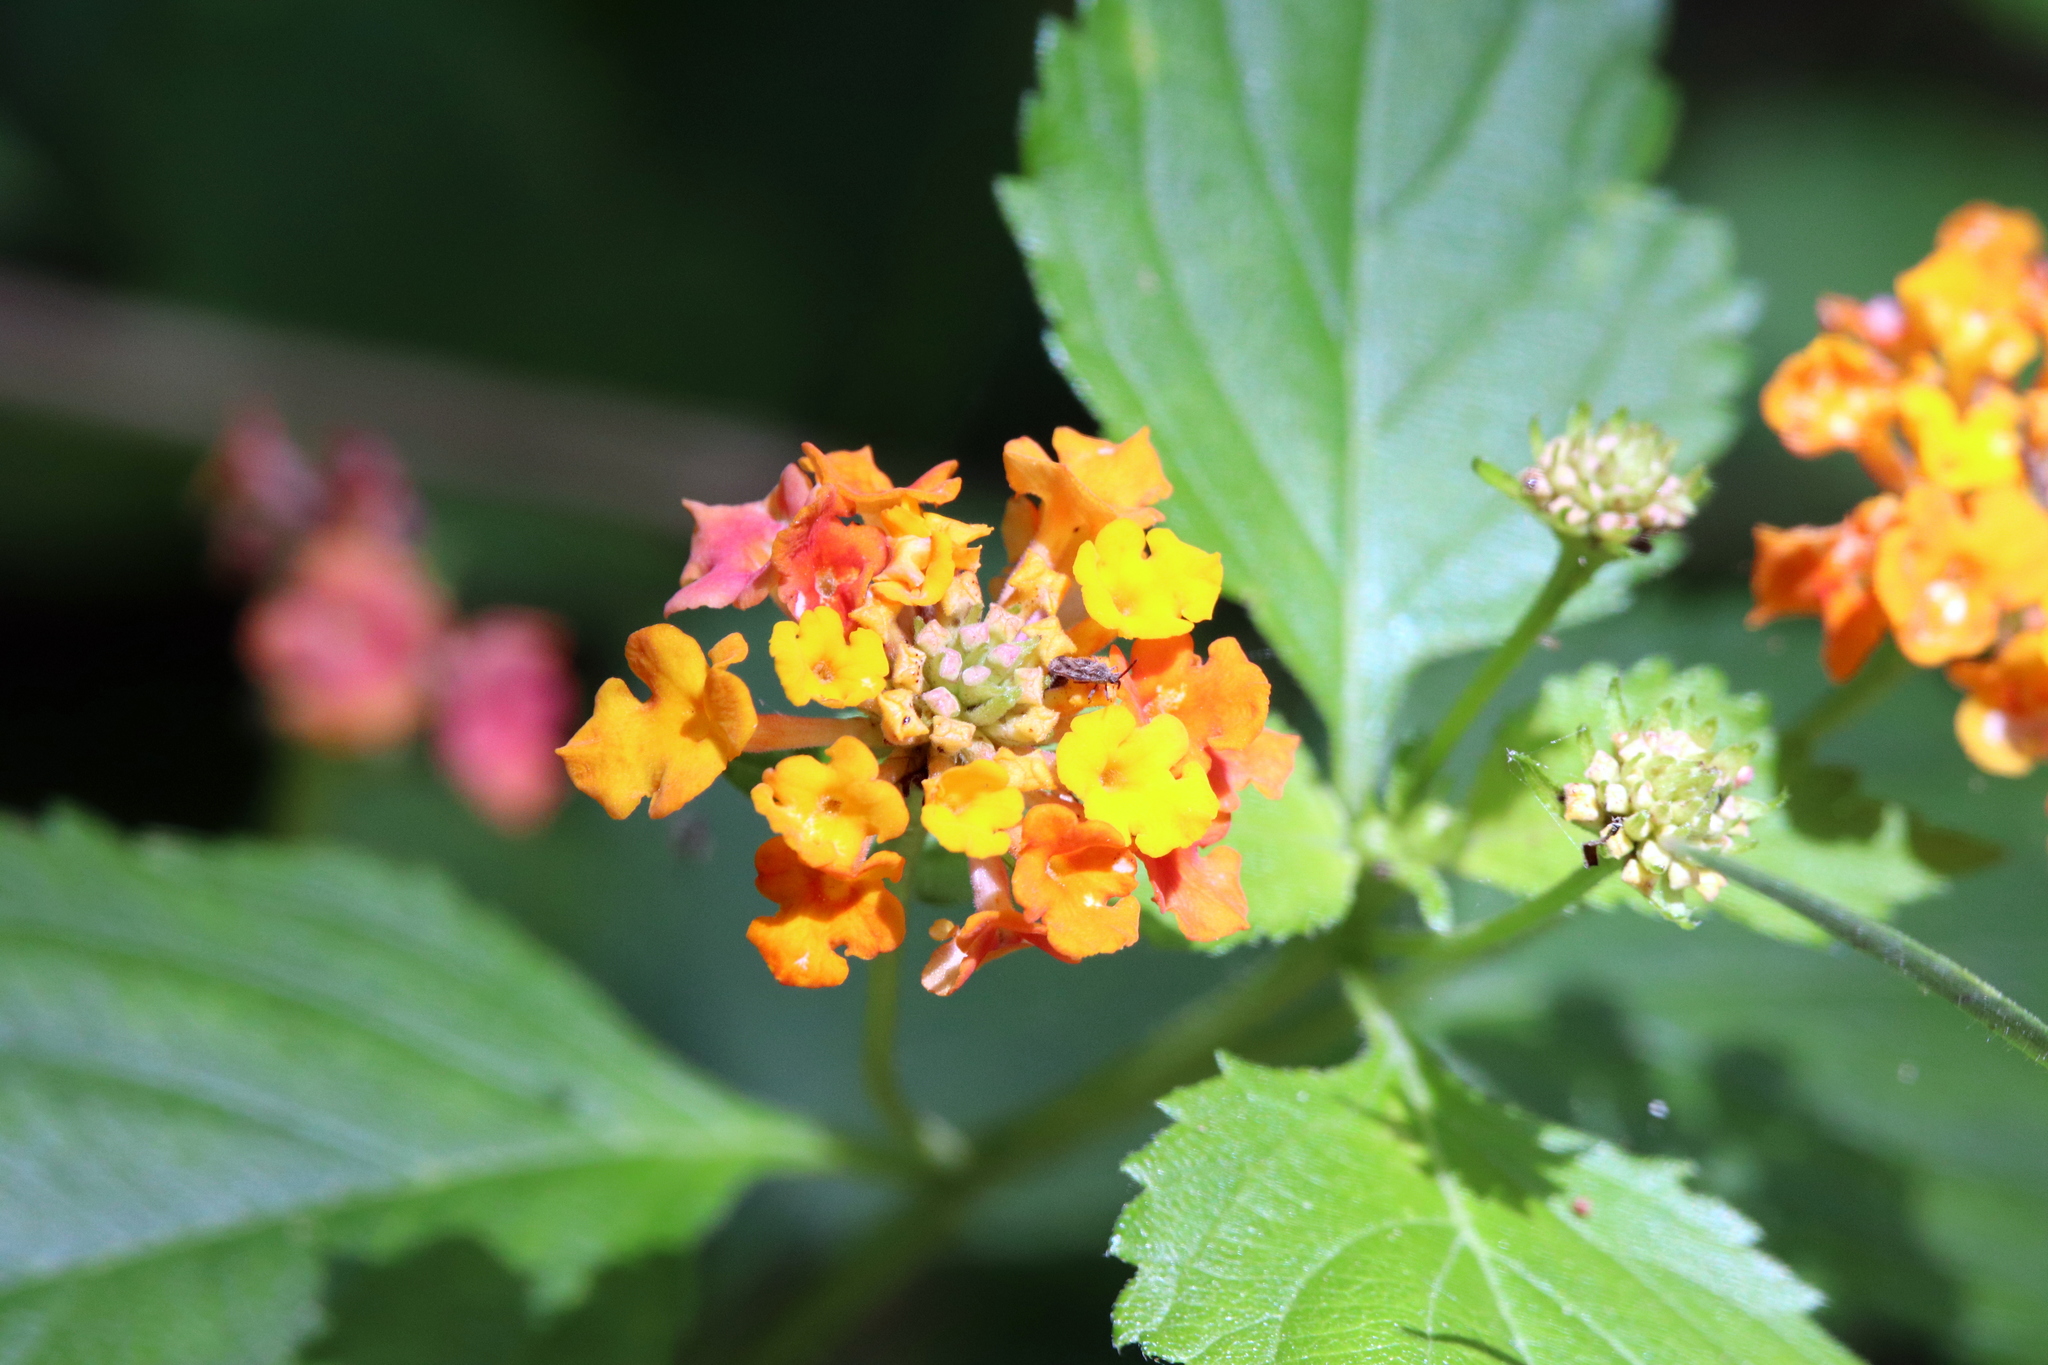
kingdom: Plantae
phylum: Tracheophyta
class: Magnoliopsida
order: Lamiales
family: Verbenaceae
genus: Lantana
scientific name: Lantana strigocamara
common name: Lantana
